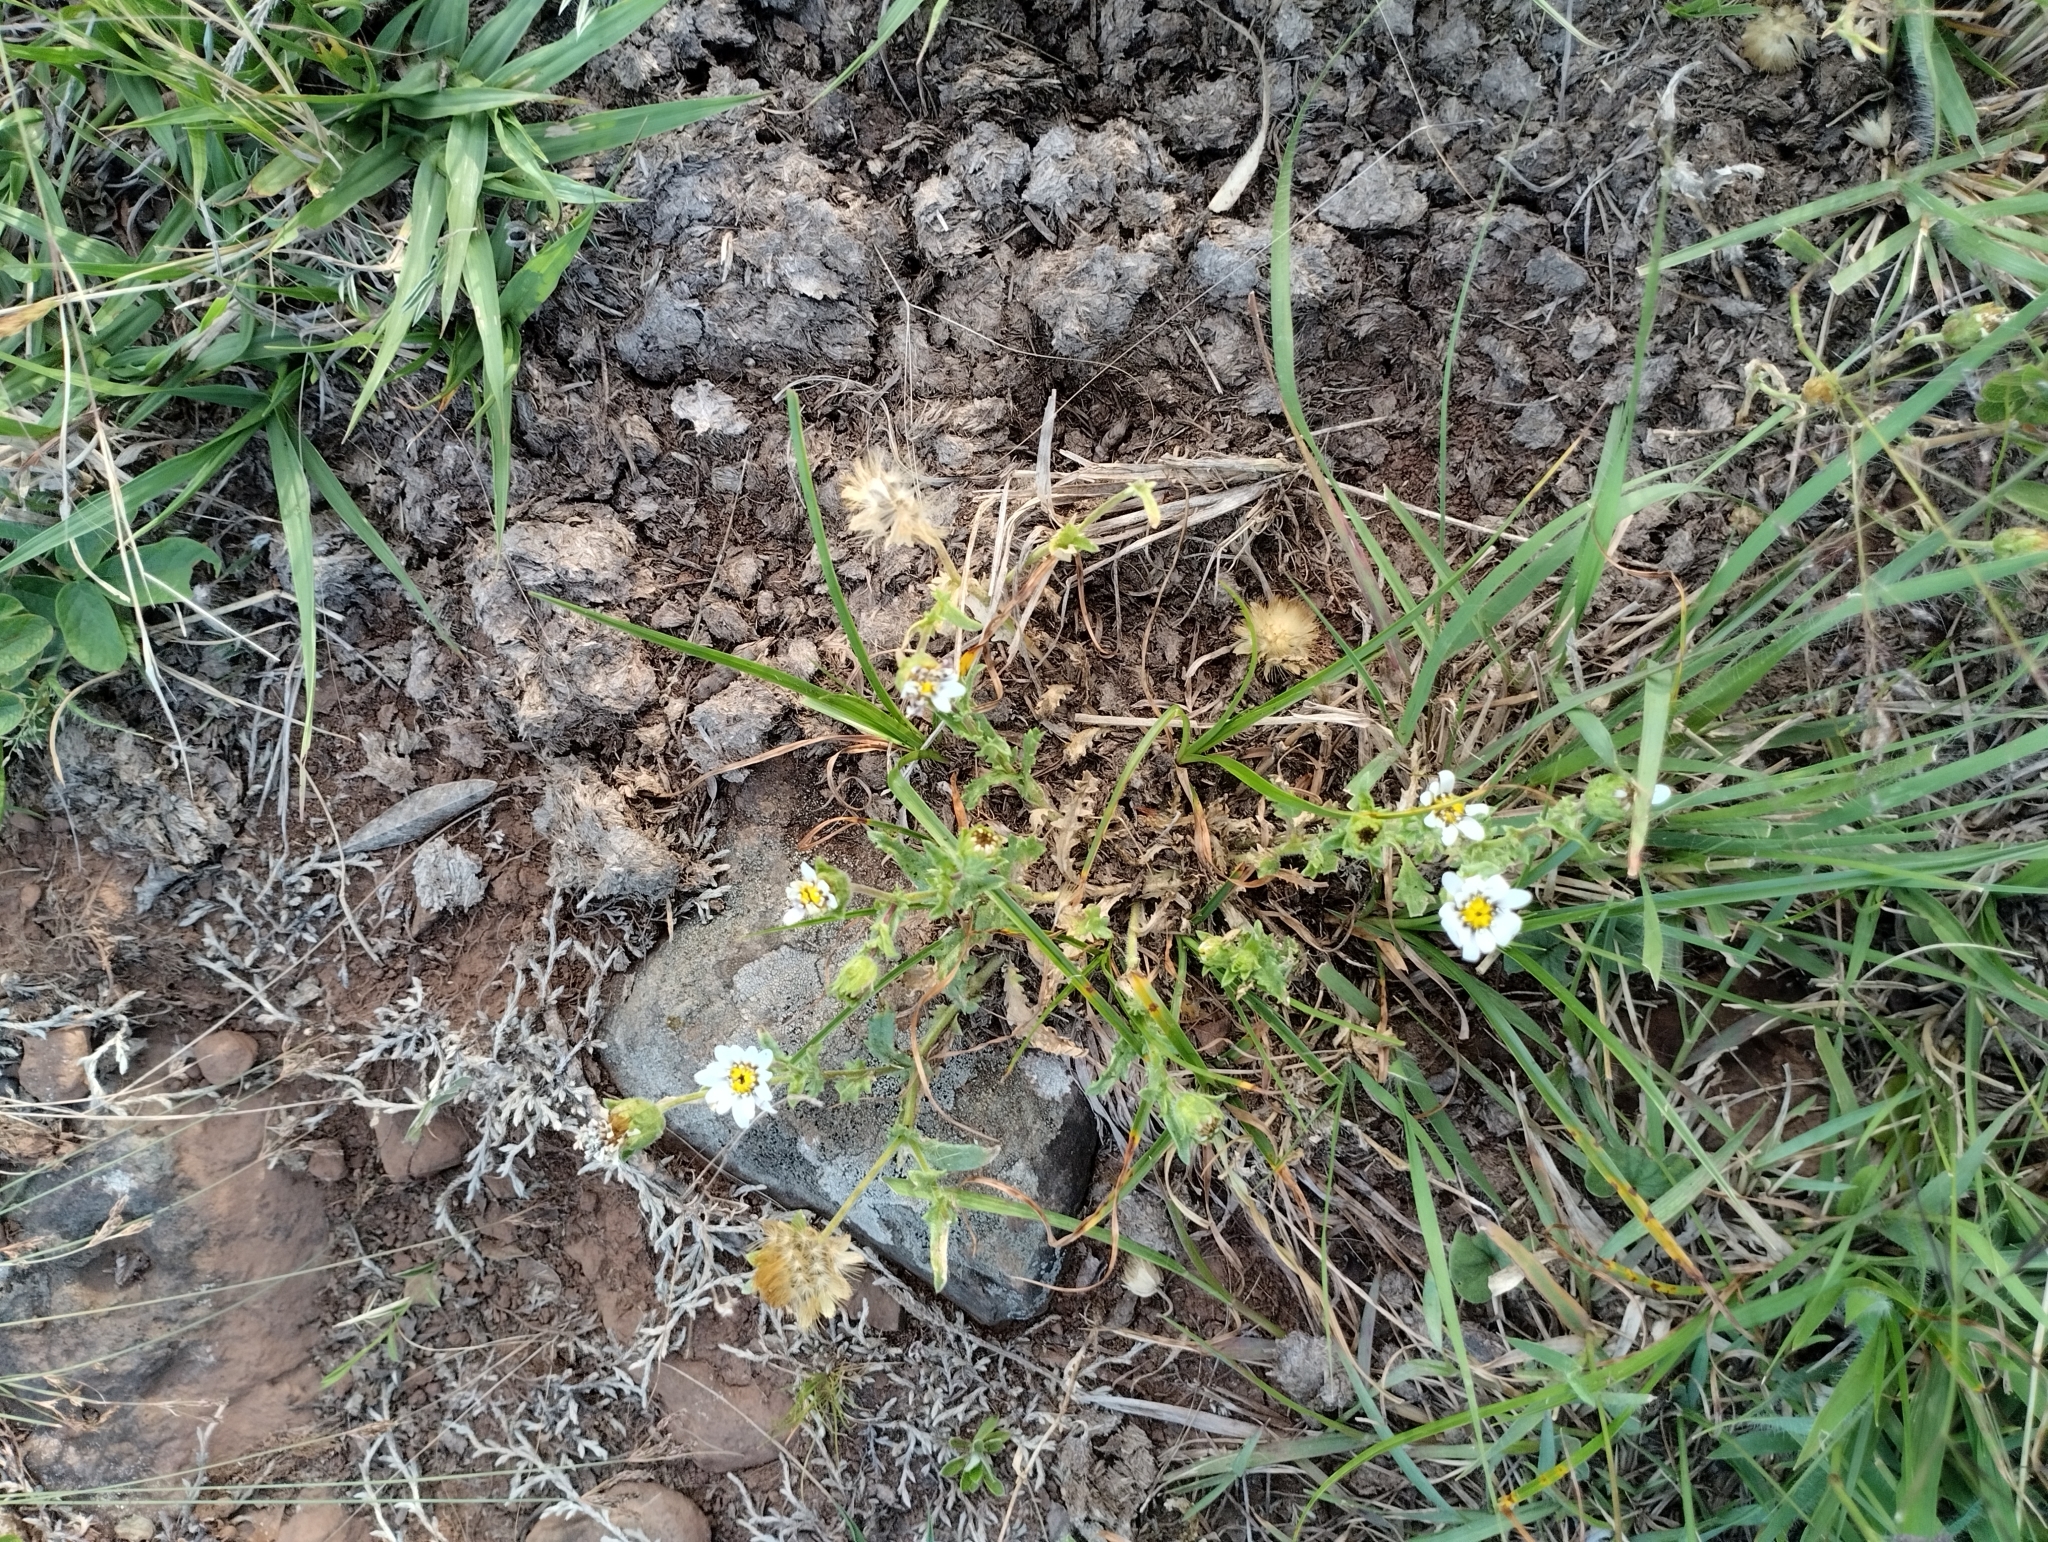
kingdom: Plantae
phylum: Tracheophyta
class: Magnoliopsida
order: Asterales
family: Asteraceae
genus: Perezia
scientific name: Perezia multiflora
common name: Perezia
